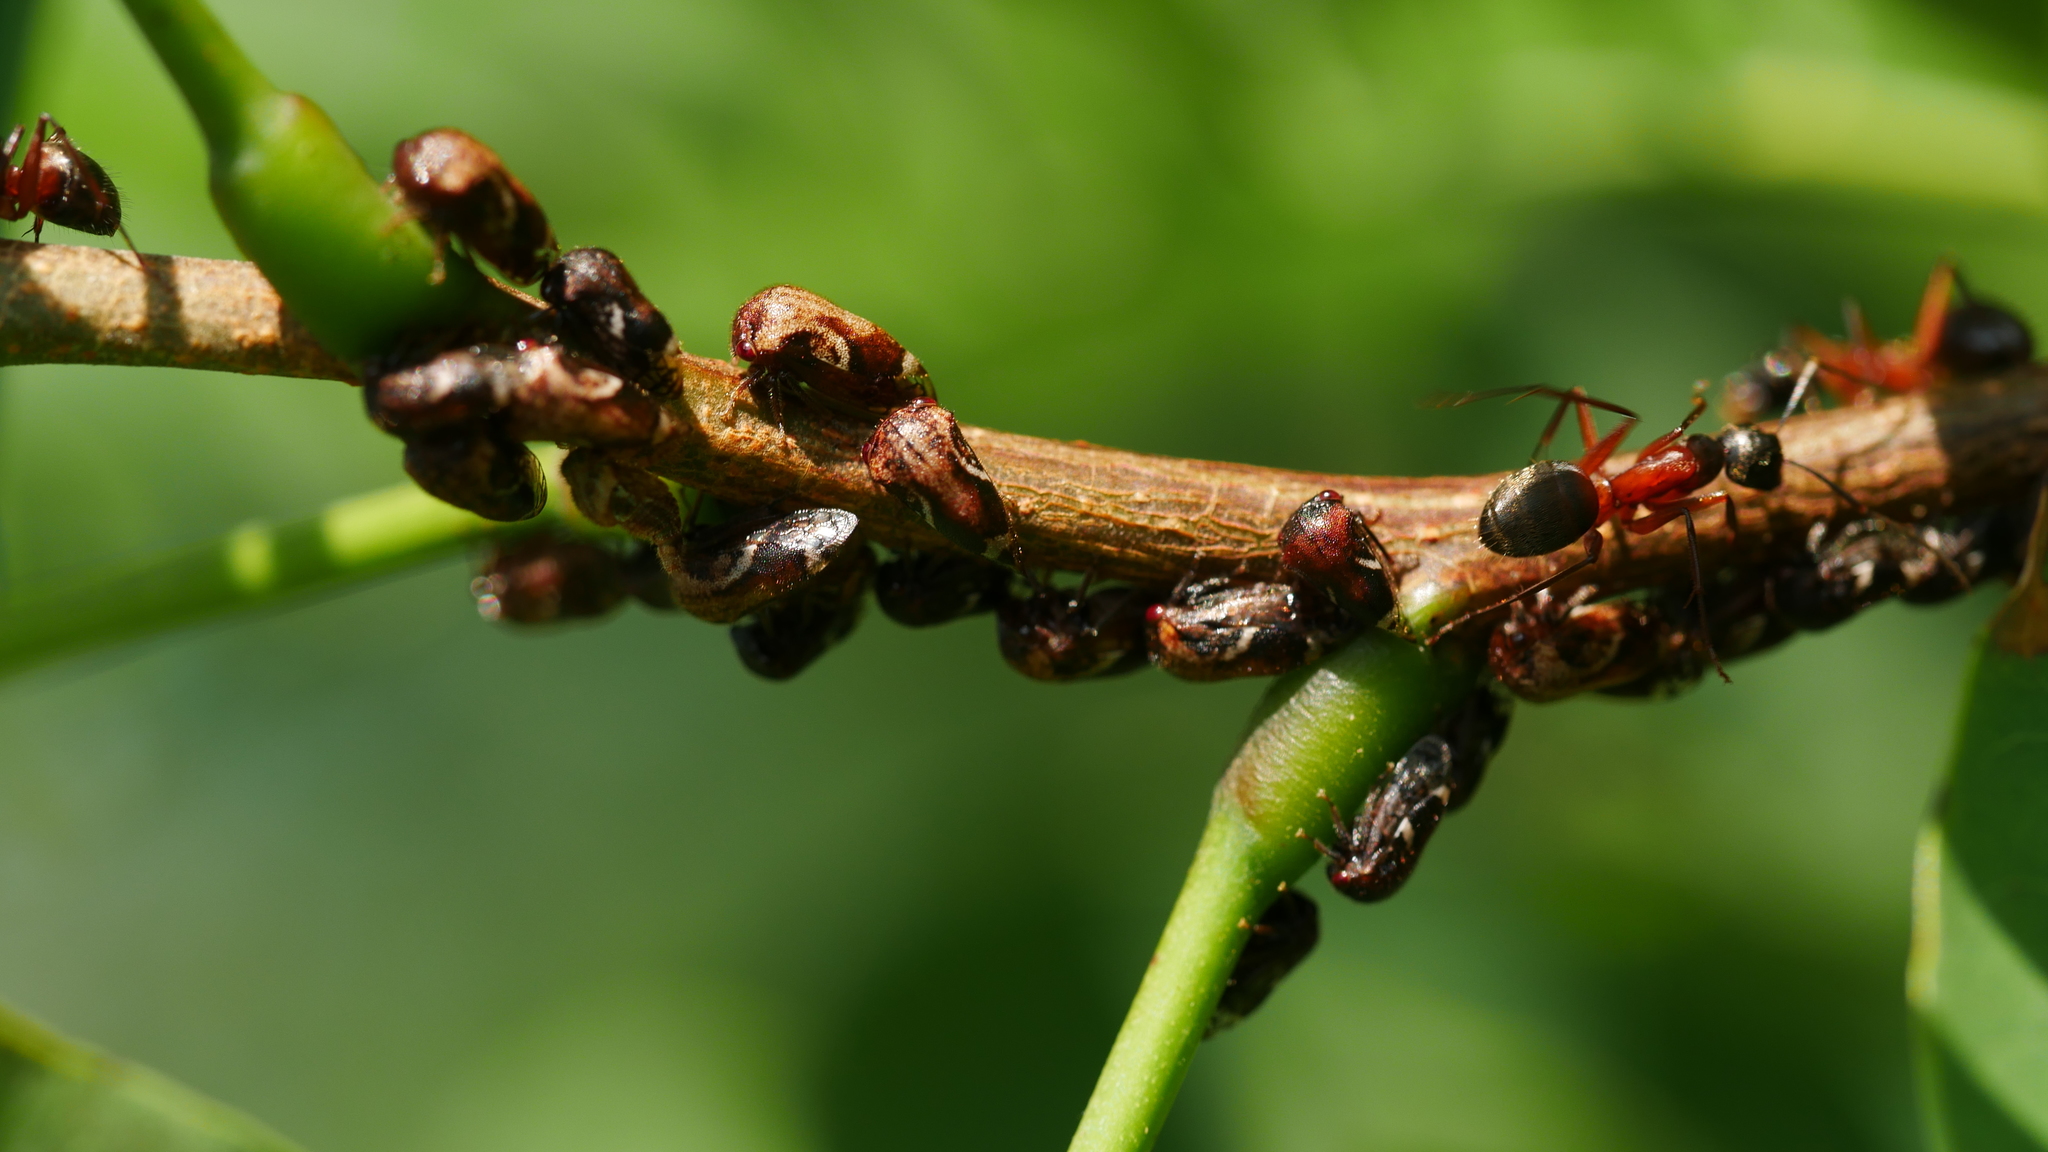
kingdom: Animalia
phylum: Arthropoda
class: Insecta
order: Hemiptera
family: Membracidae
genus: Vanduzea
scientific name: Vanduzea arquata
